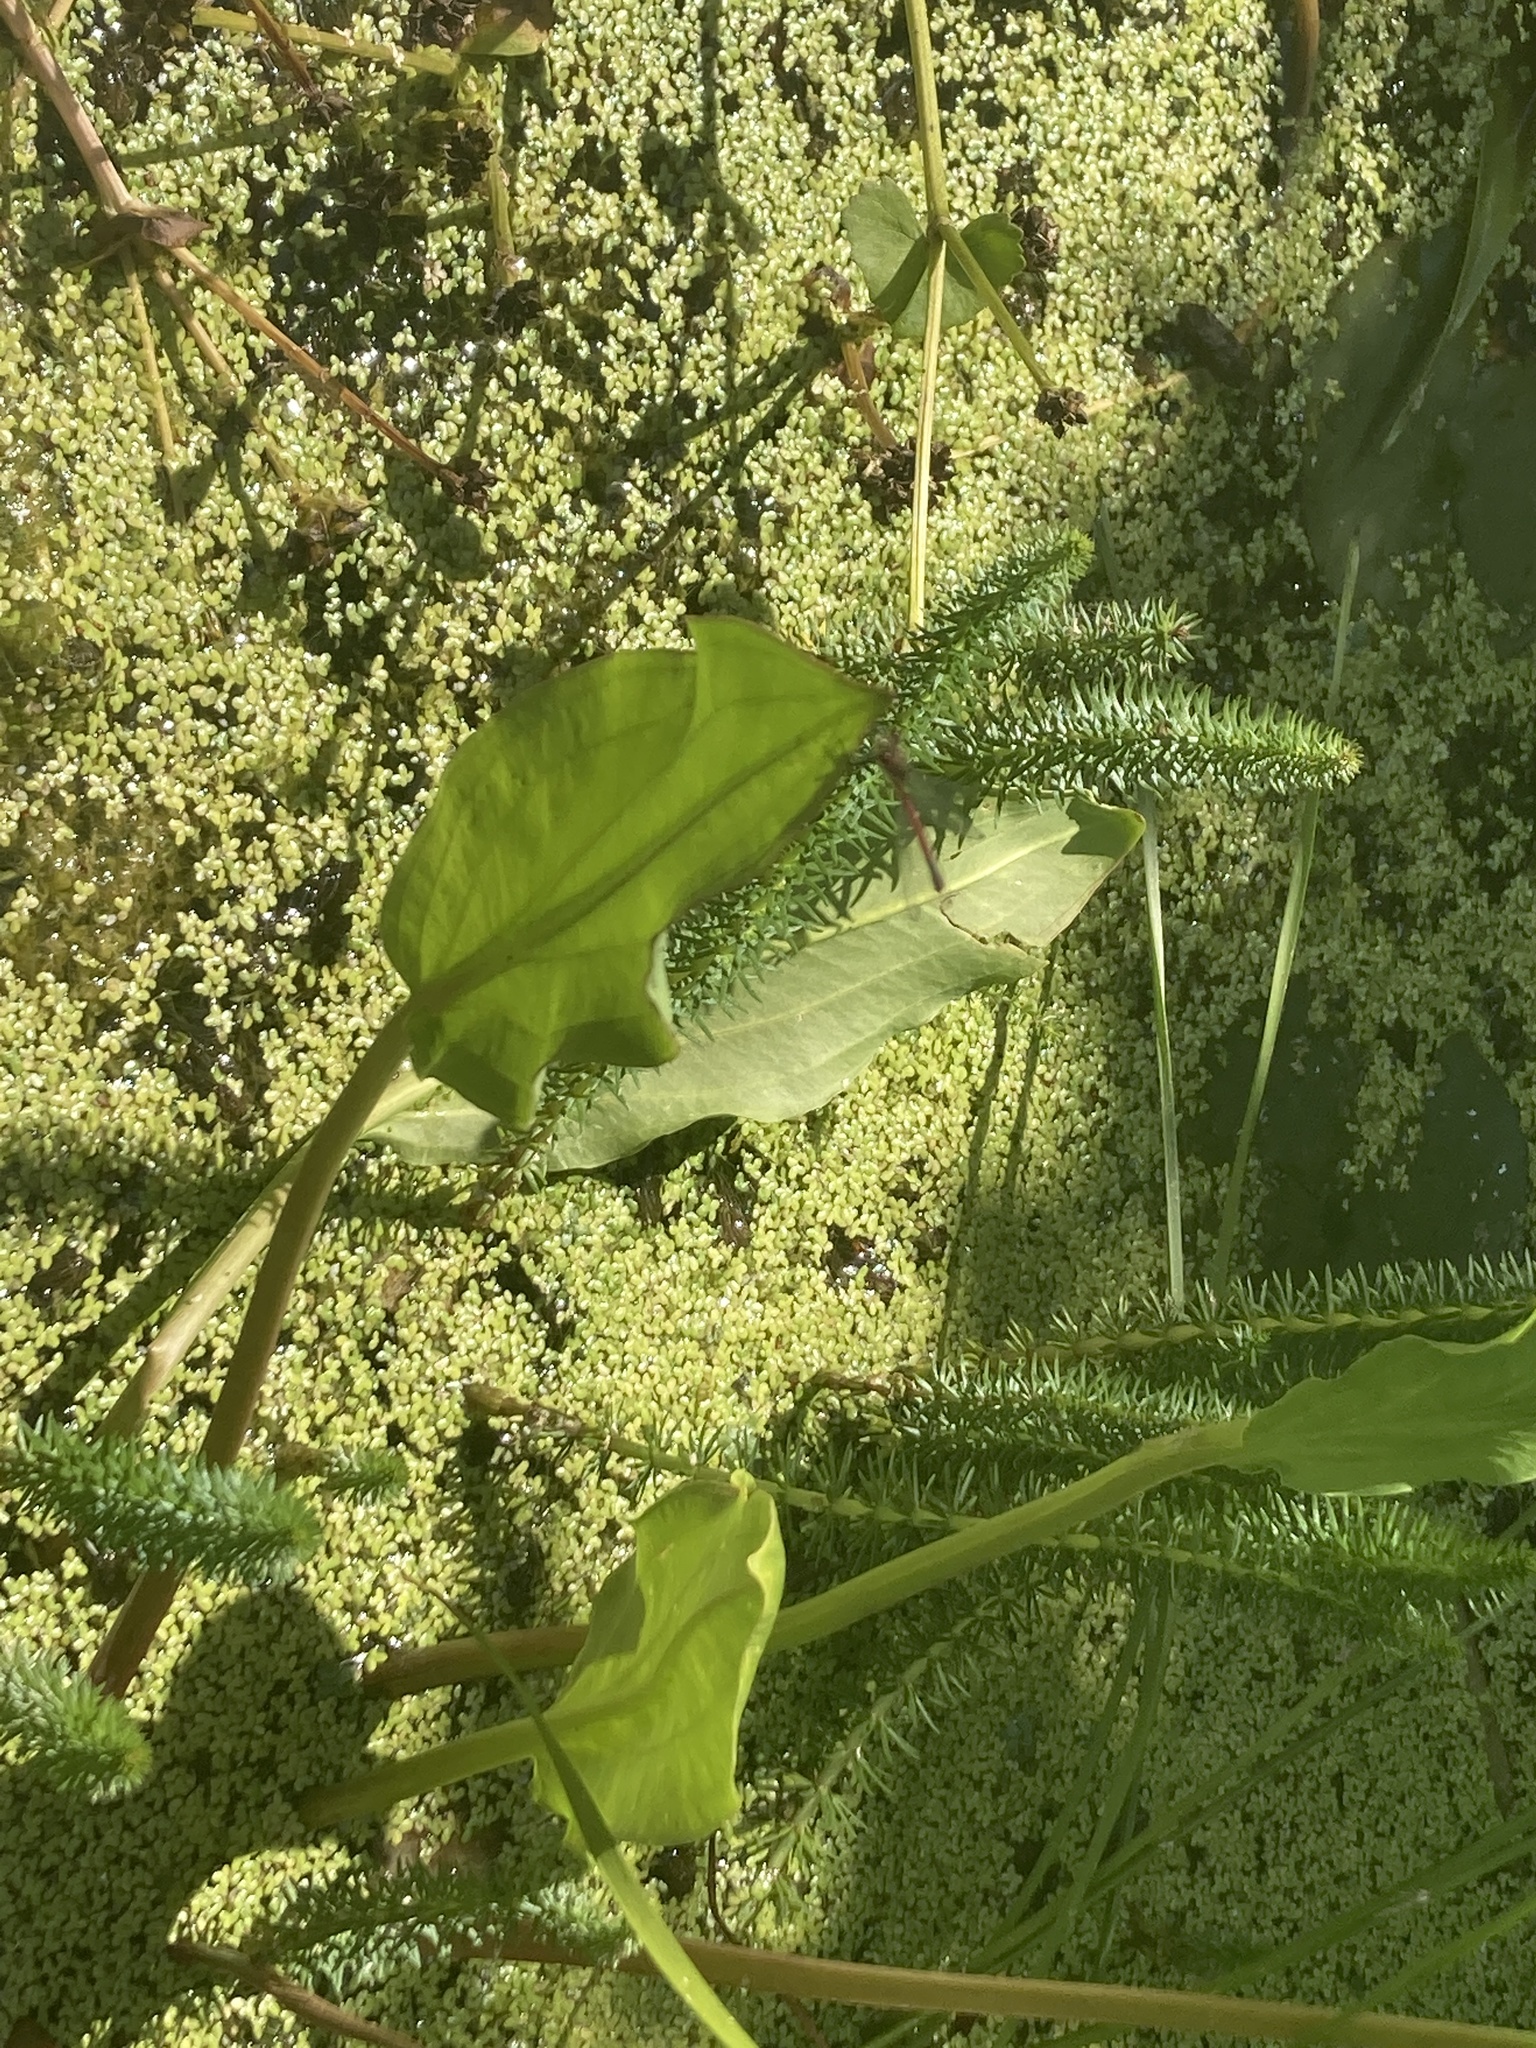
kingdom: Animalia
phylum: Arthropoda
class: Insecta
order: Odonata
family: Coenagrionidae
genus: Pyrrhosoma
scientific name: Pyrrhosoma nymphula
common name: Large red damsel
